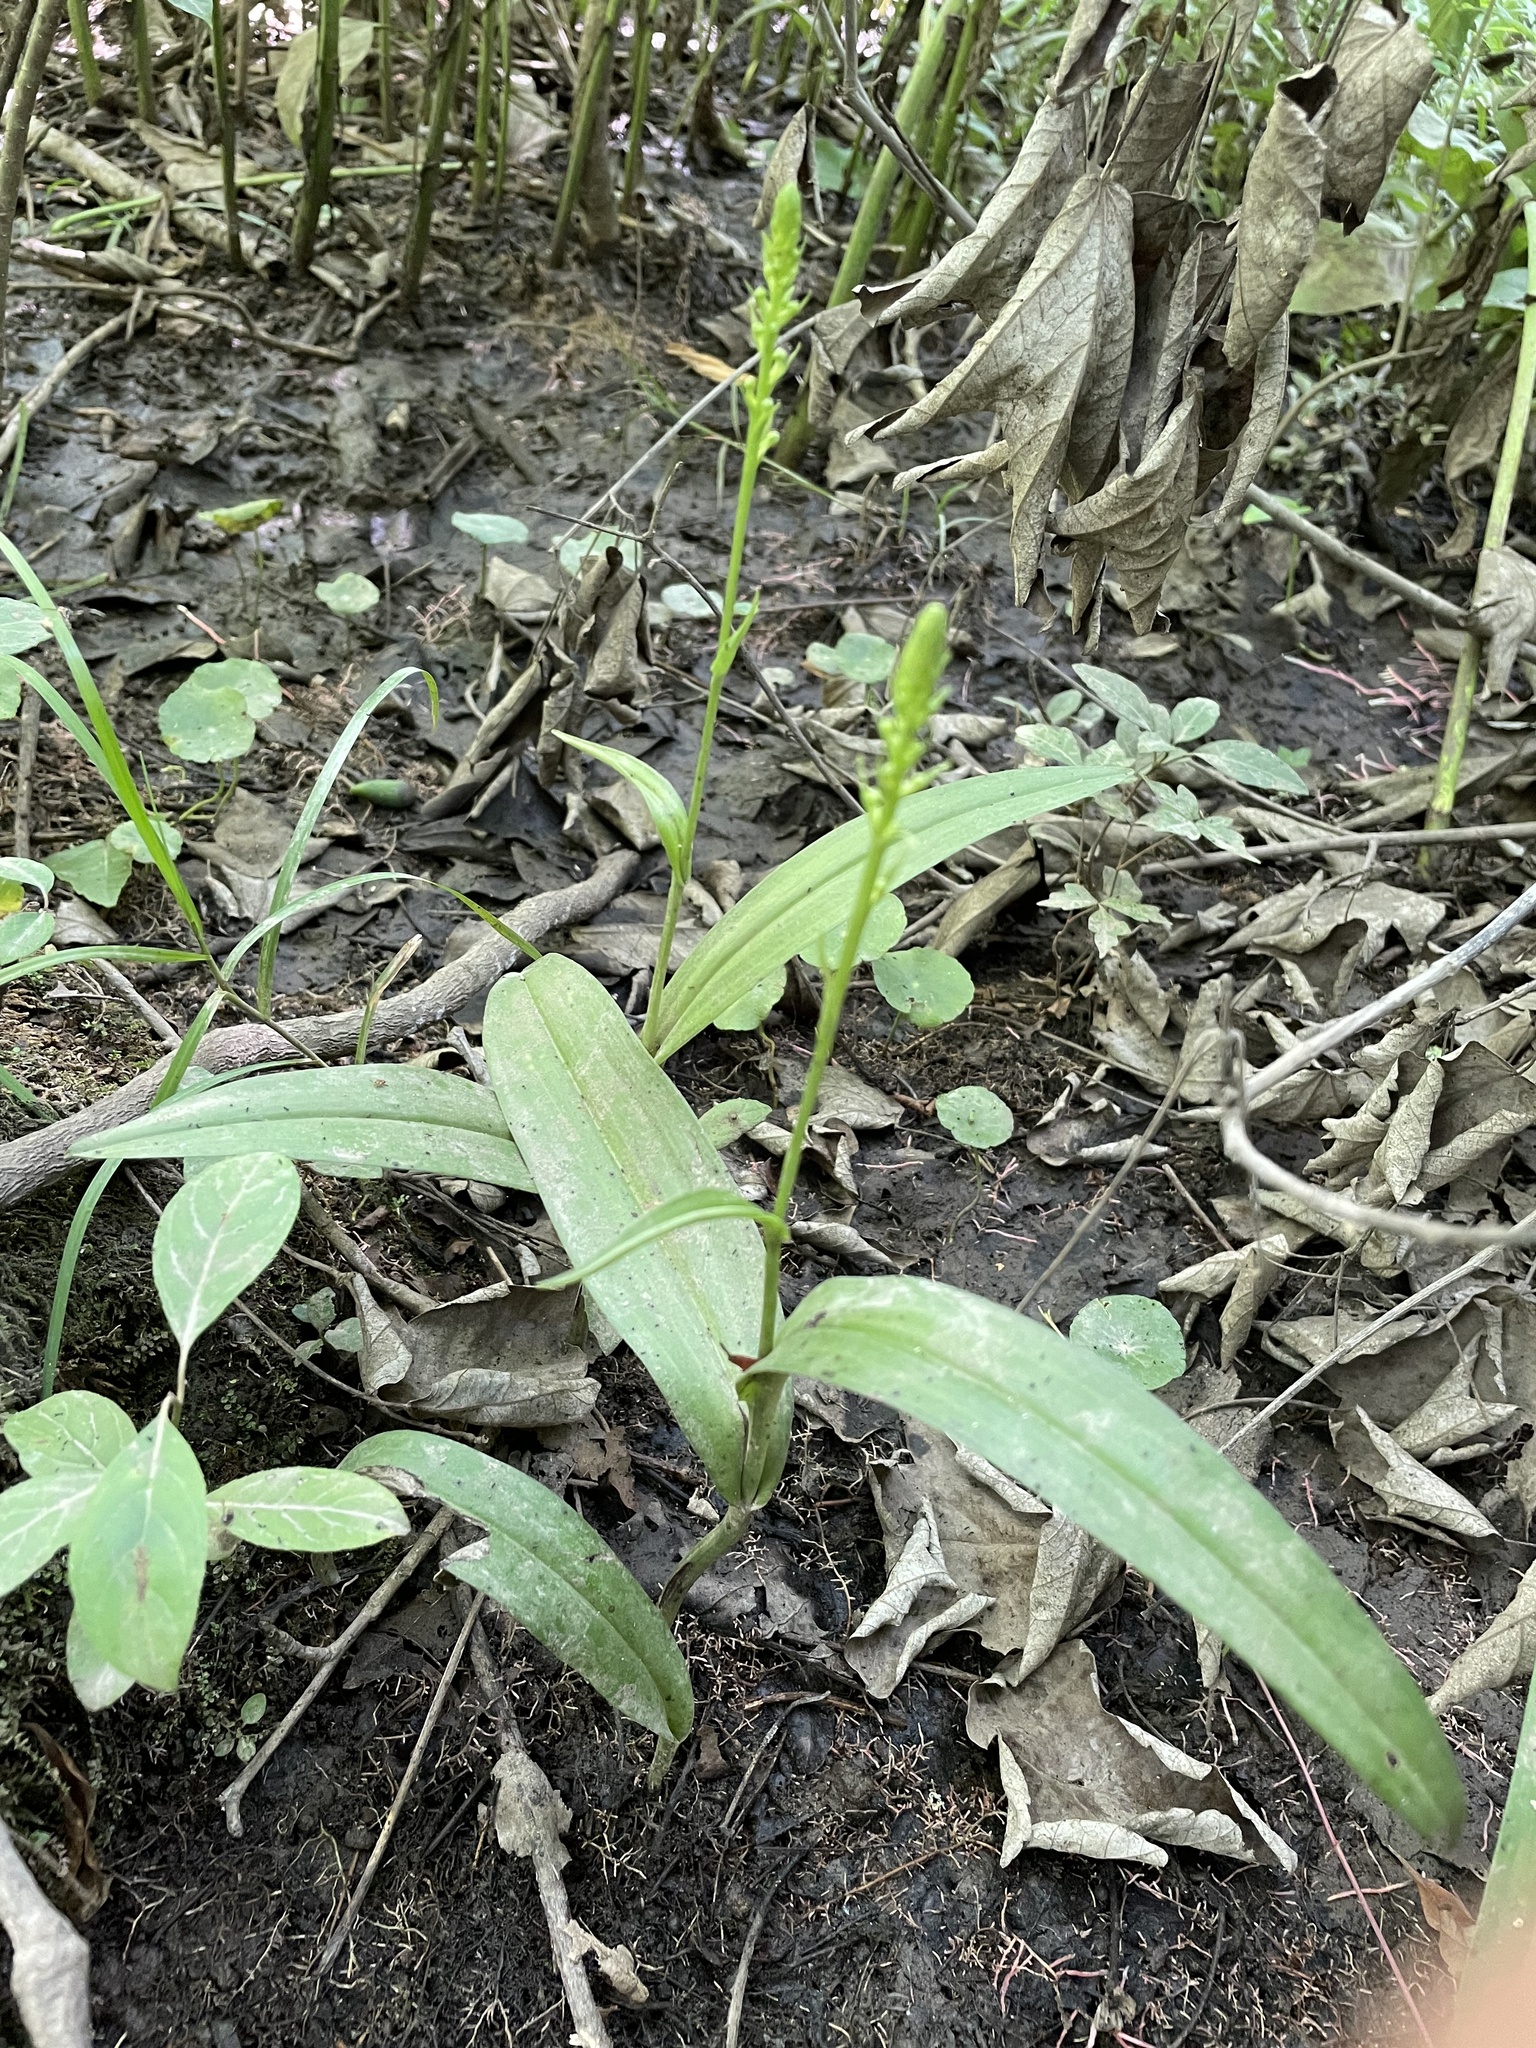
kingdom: Plantae
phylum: Tracheophyta
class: Liliopsida
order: Asparagales
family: Orchidaceae
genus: Platanthera
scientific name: Platanthera flava
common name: Gypsy-spikes
